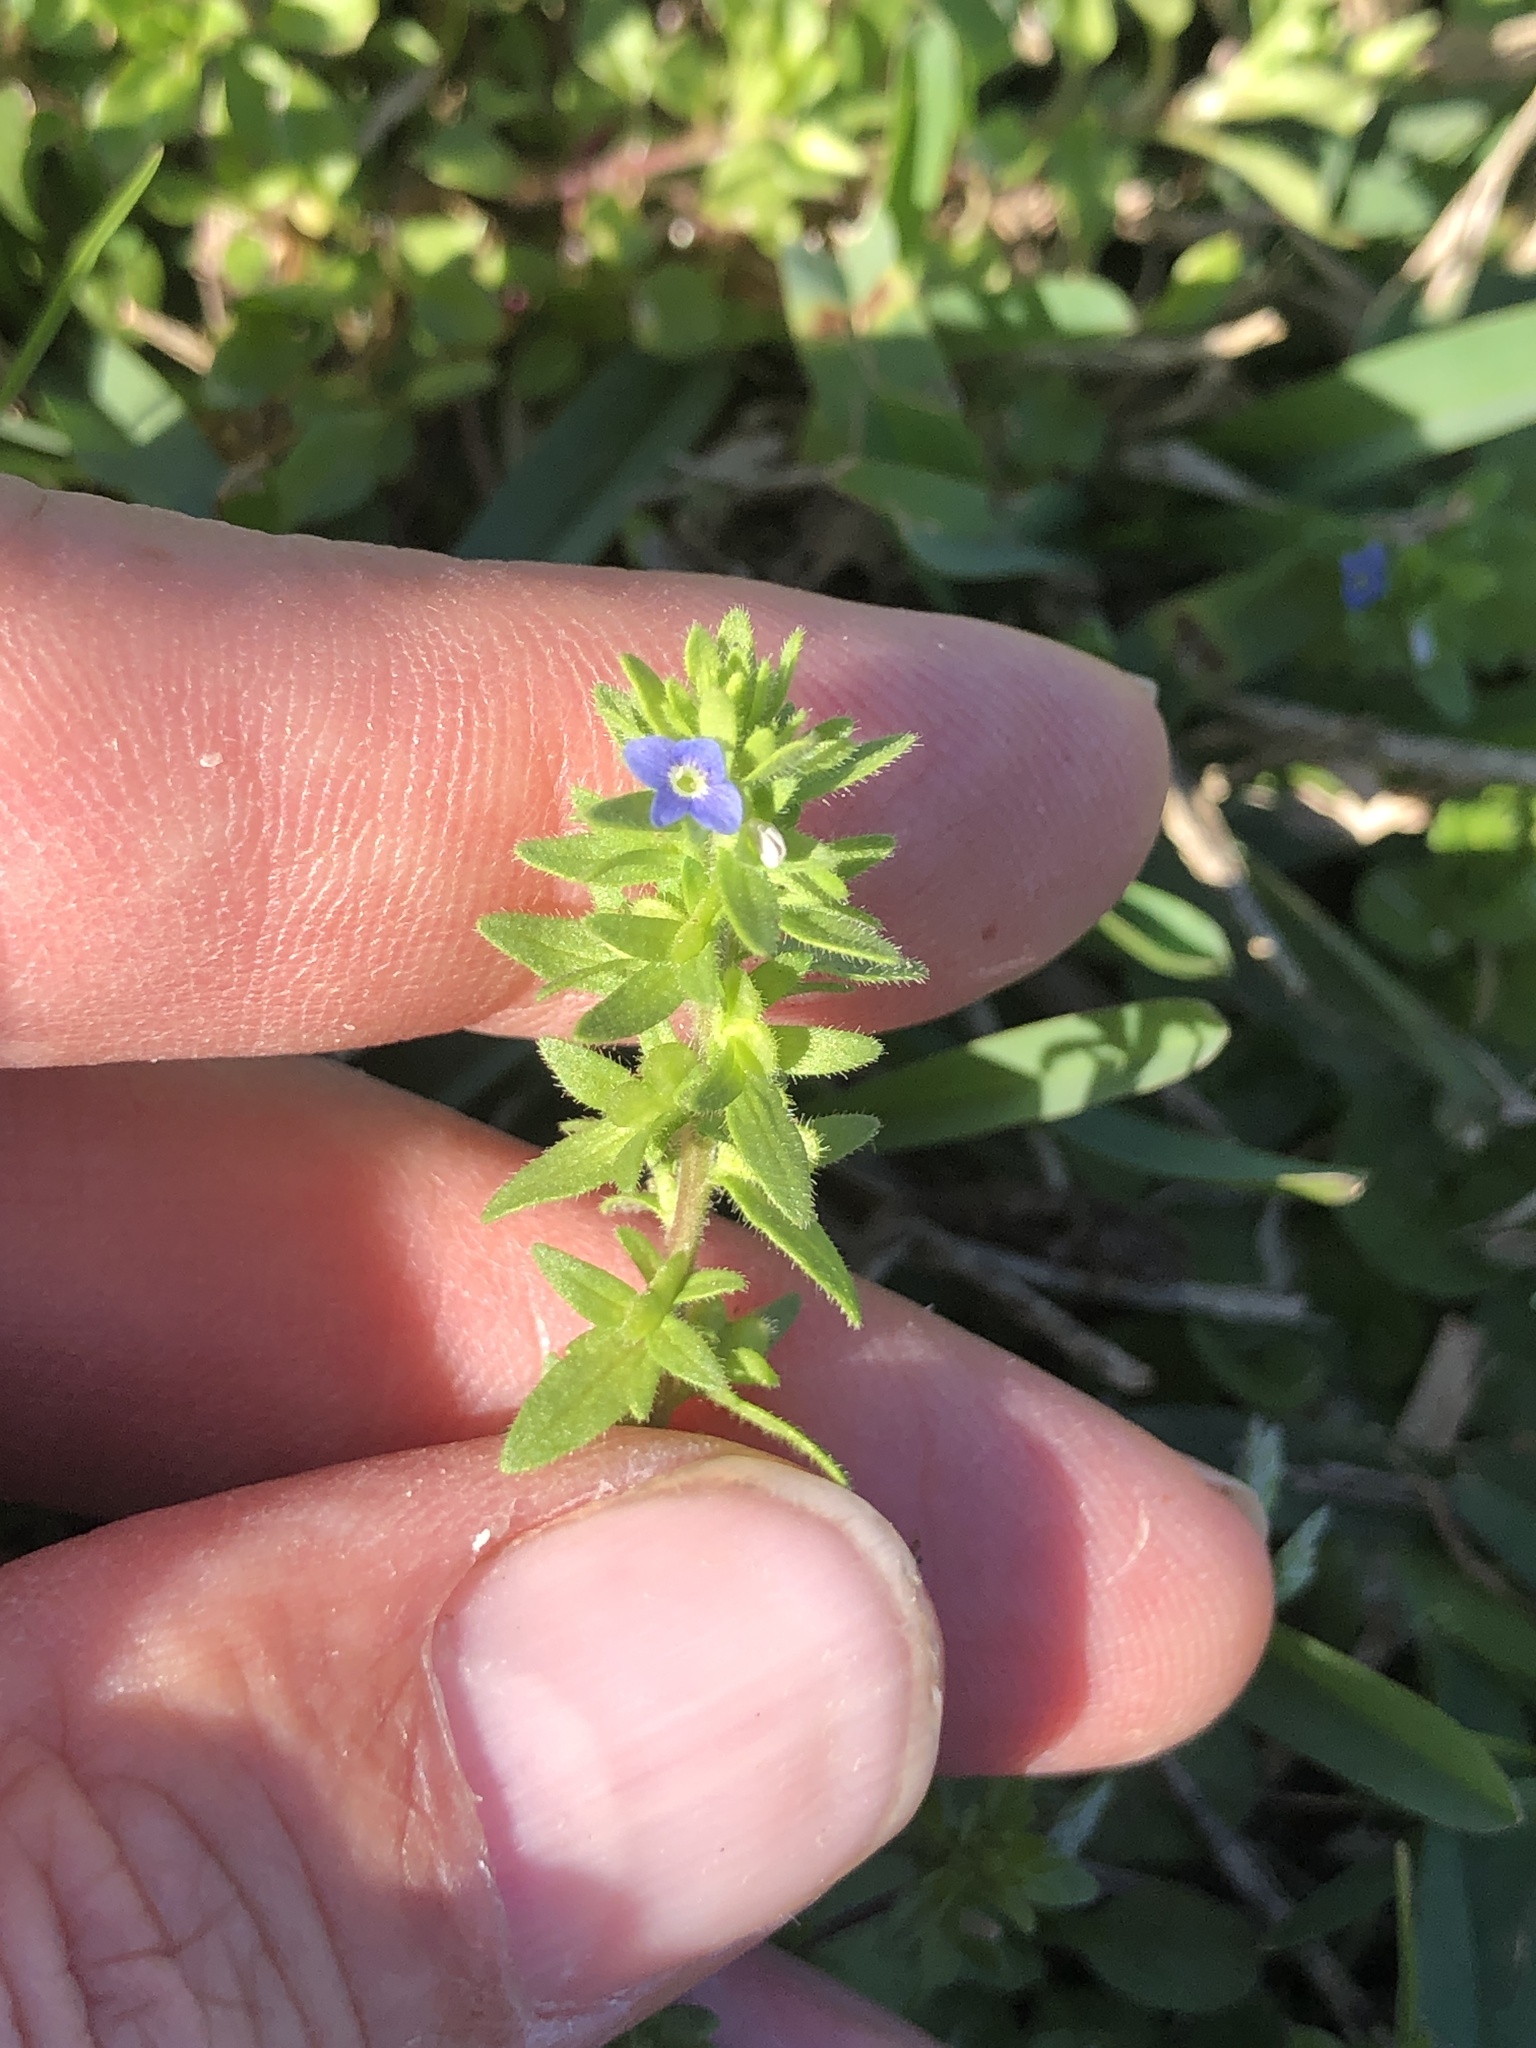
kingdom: Plantae
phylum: Tracheophyta
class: Magnoliopsida
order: Lamiales
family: Plantaginaceae
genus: Veronica
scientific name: Veronica arvensis
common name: Corn speedwell
